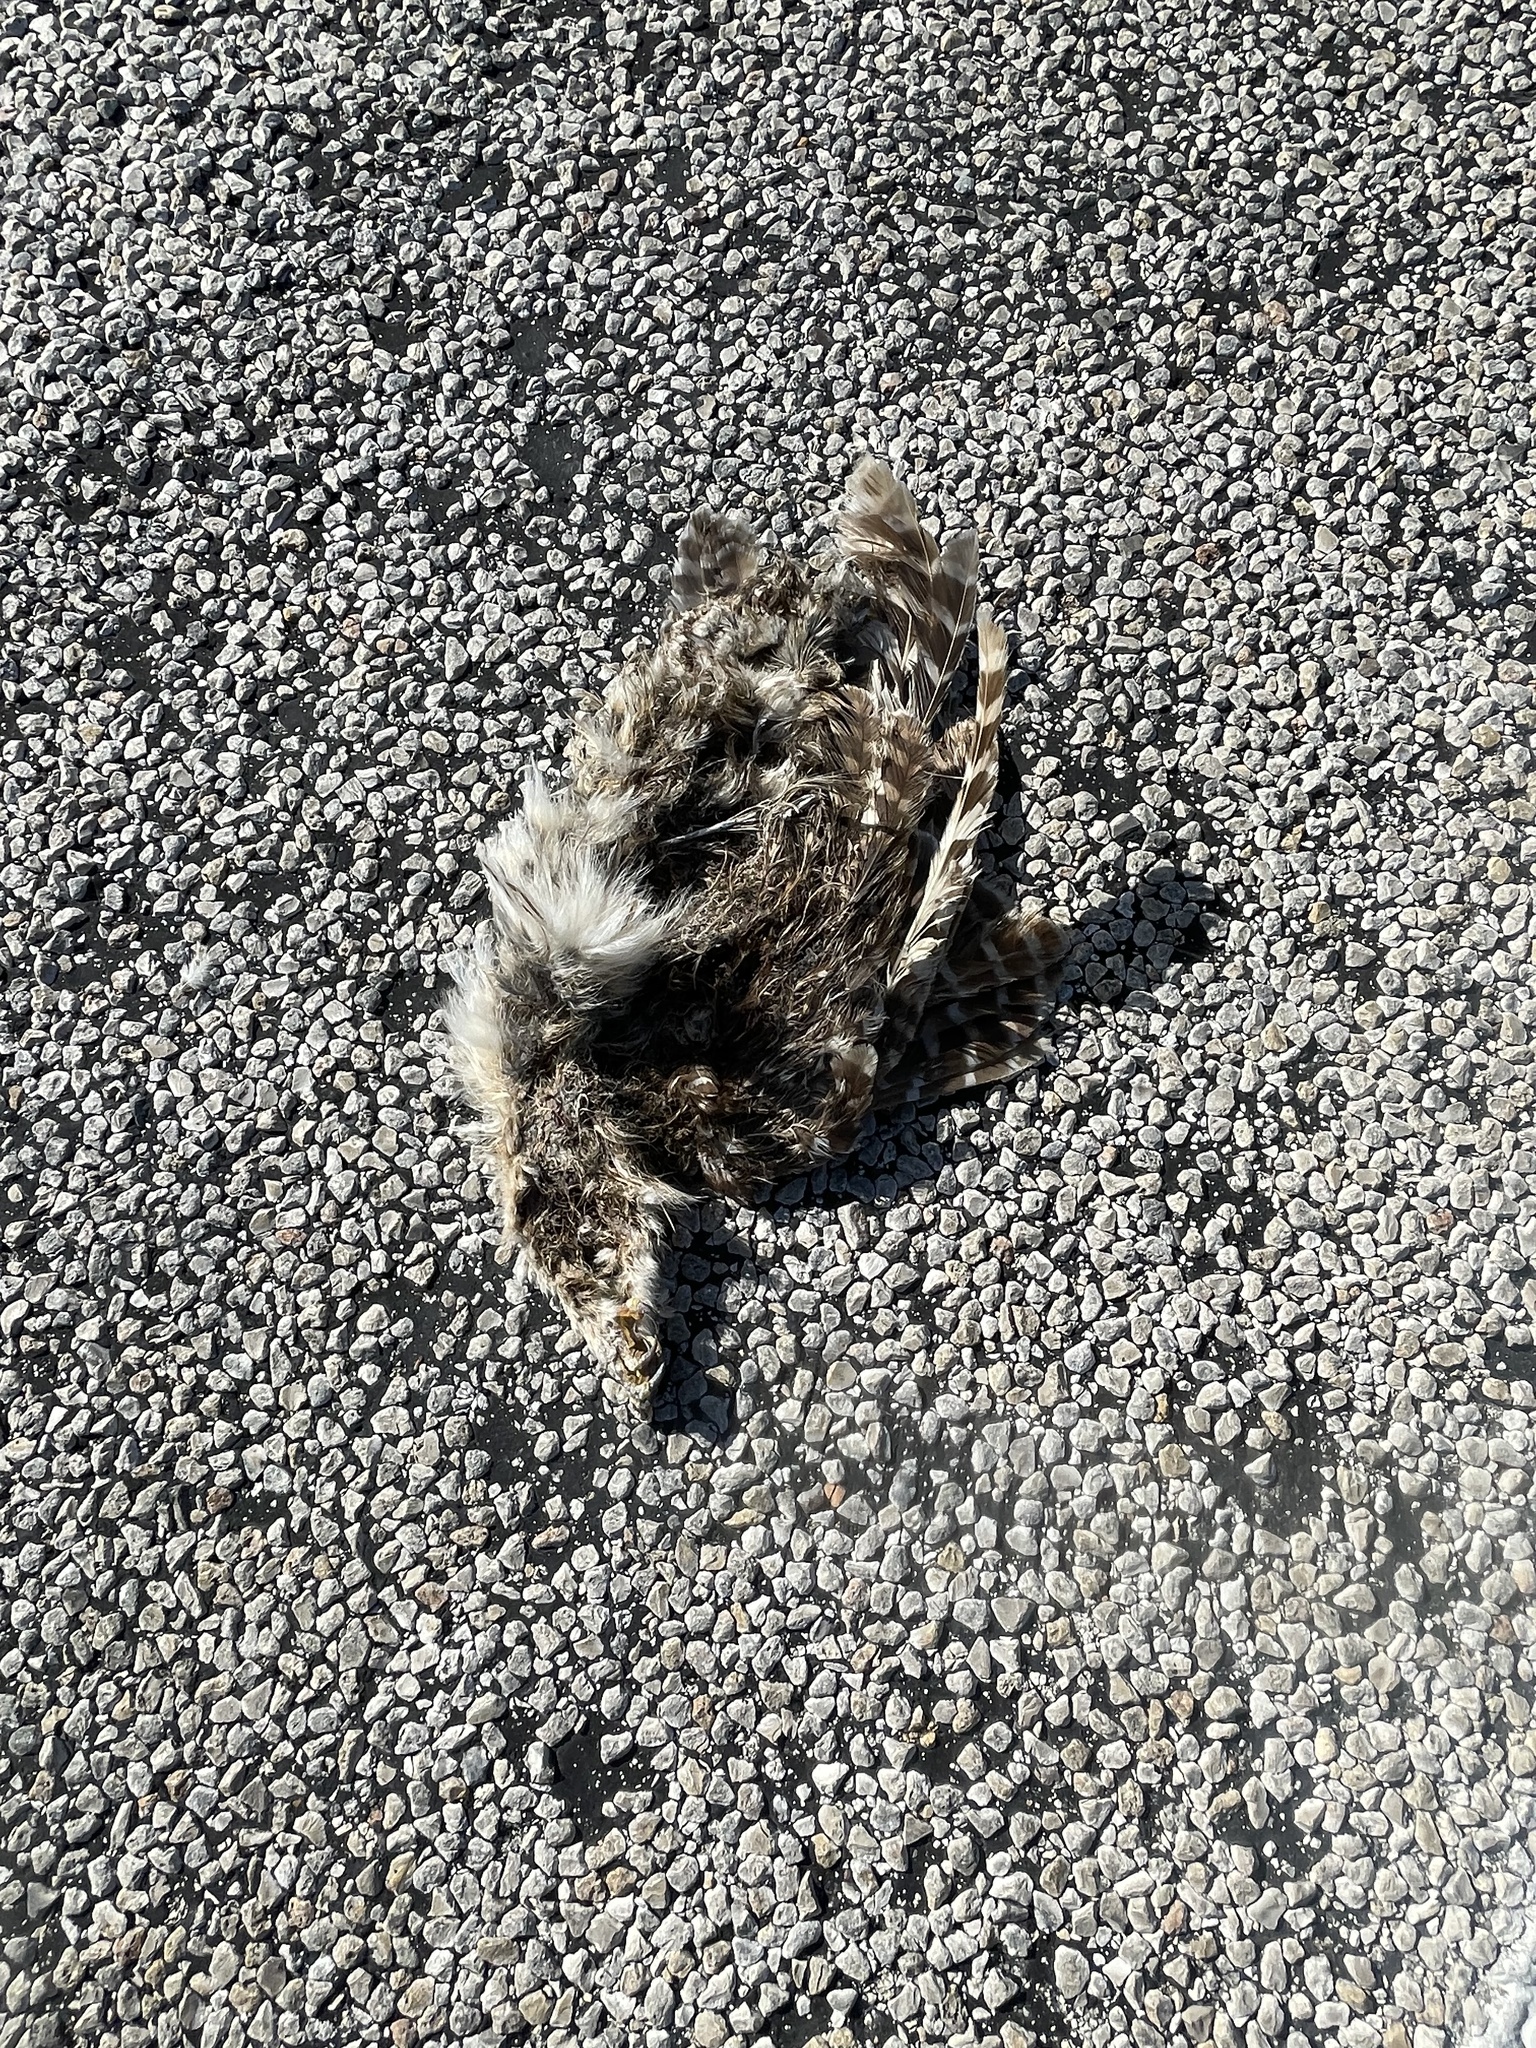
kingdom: Animalia
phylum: Chordata
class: Aves
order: Strigiformes
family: Strigidae
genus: Strix
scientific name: Strix varia
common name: Barred owl
